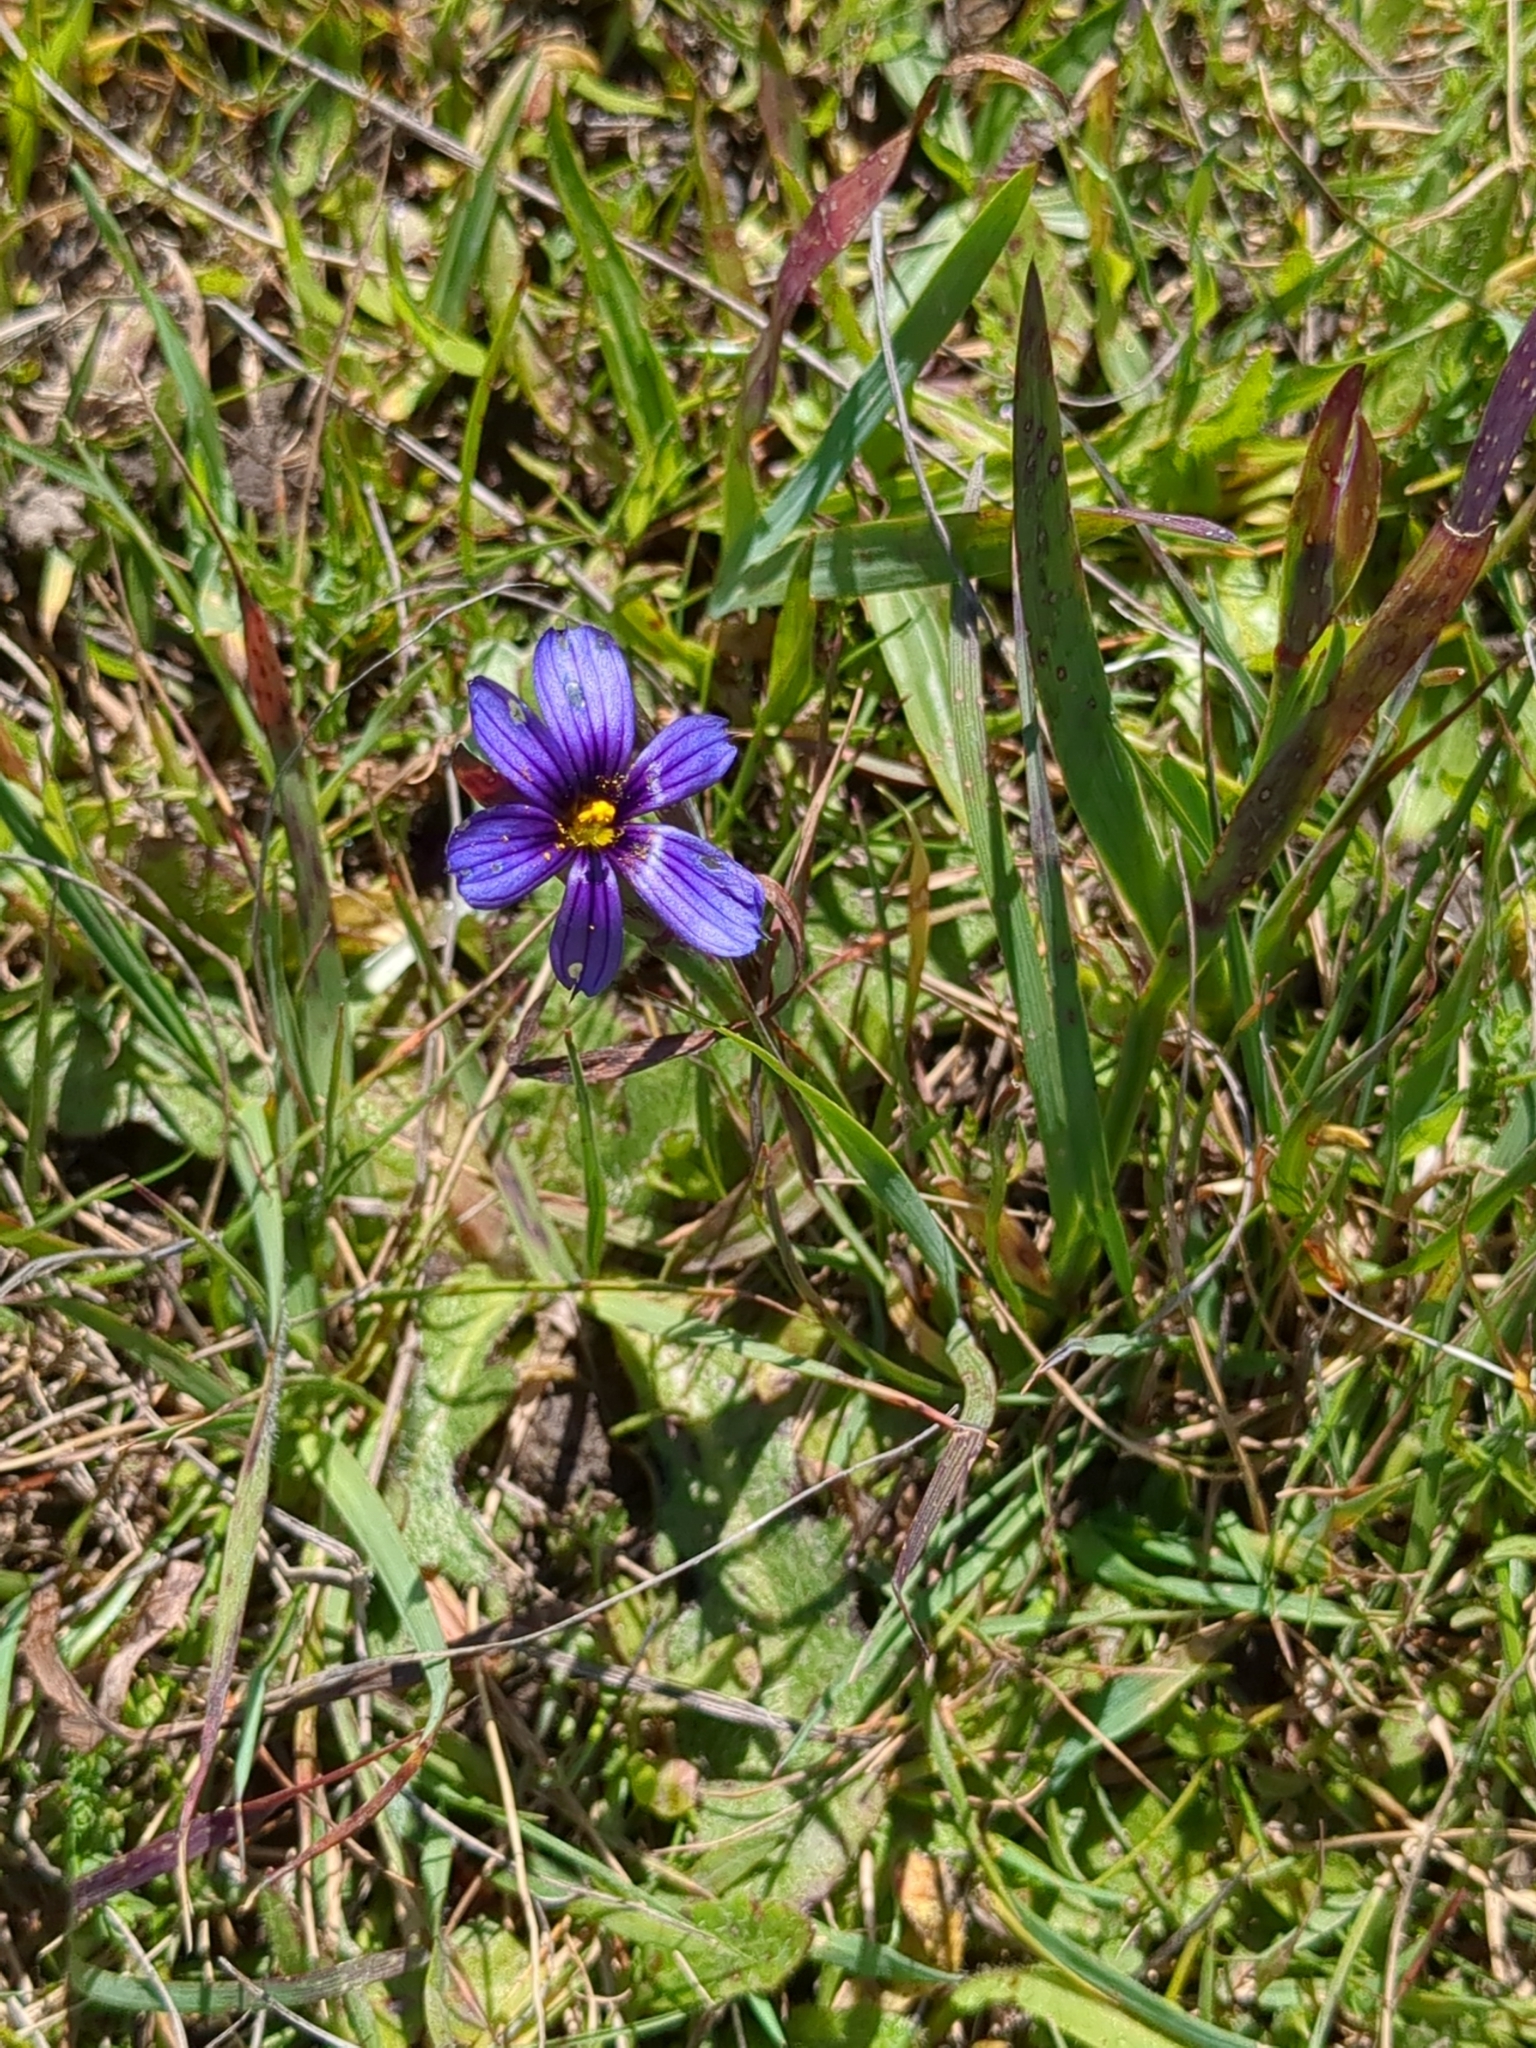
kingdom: Plantae
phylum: Tracheophyta
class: Liliopsida
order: Asparagales
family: Iridaceae
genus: Sisyrinchium
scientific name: Sisyrinchium bellum
